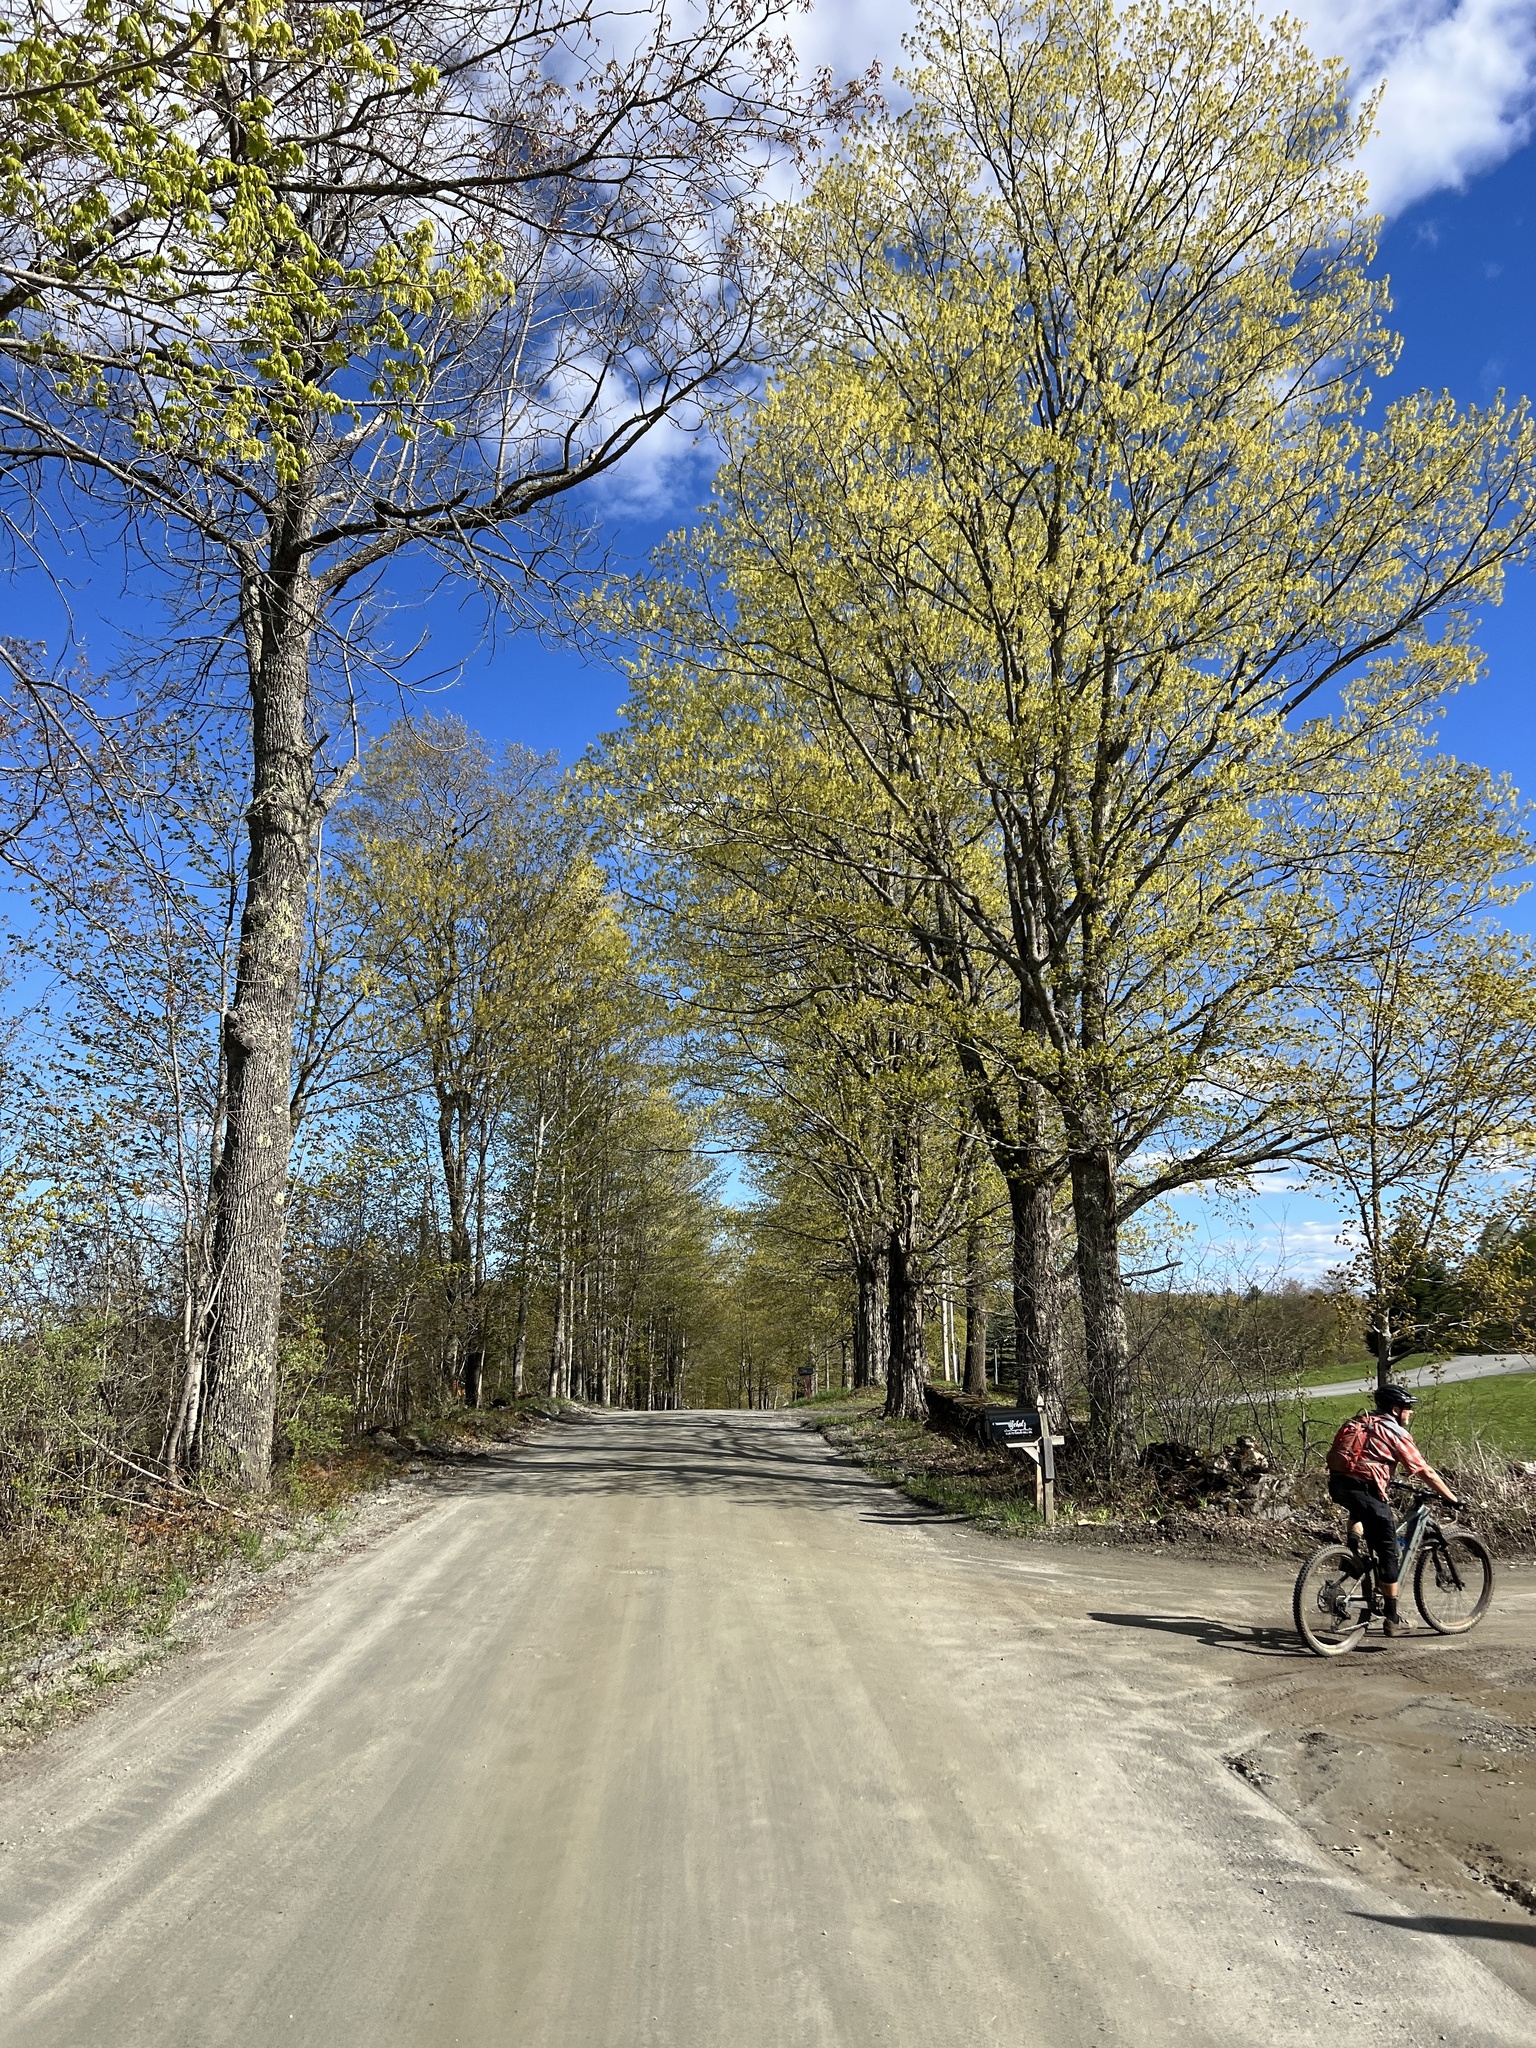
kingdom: Plantae
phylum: Tracheophyta
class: Magnoliopsida
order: Sapindales
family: Sapindaceae
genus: Acer
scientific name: Acer saccharum
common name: Sugar maple
